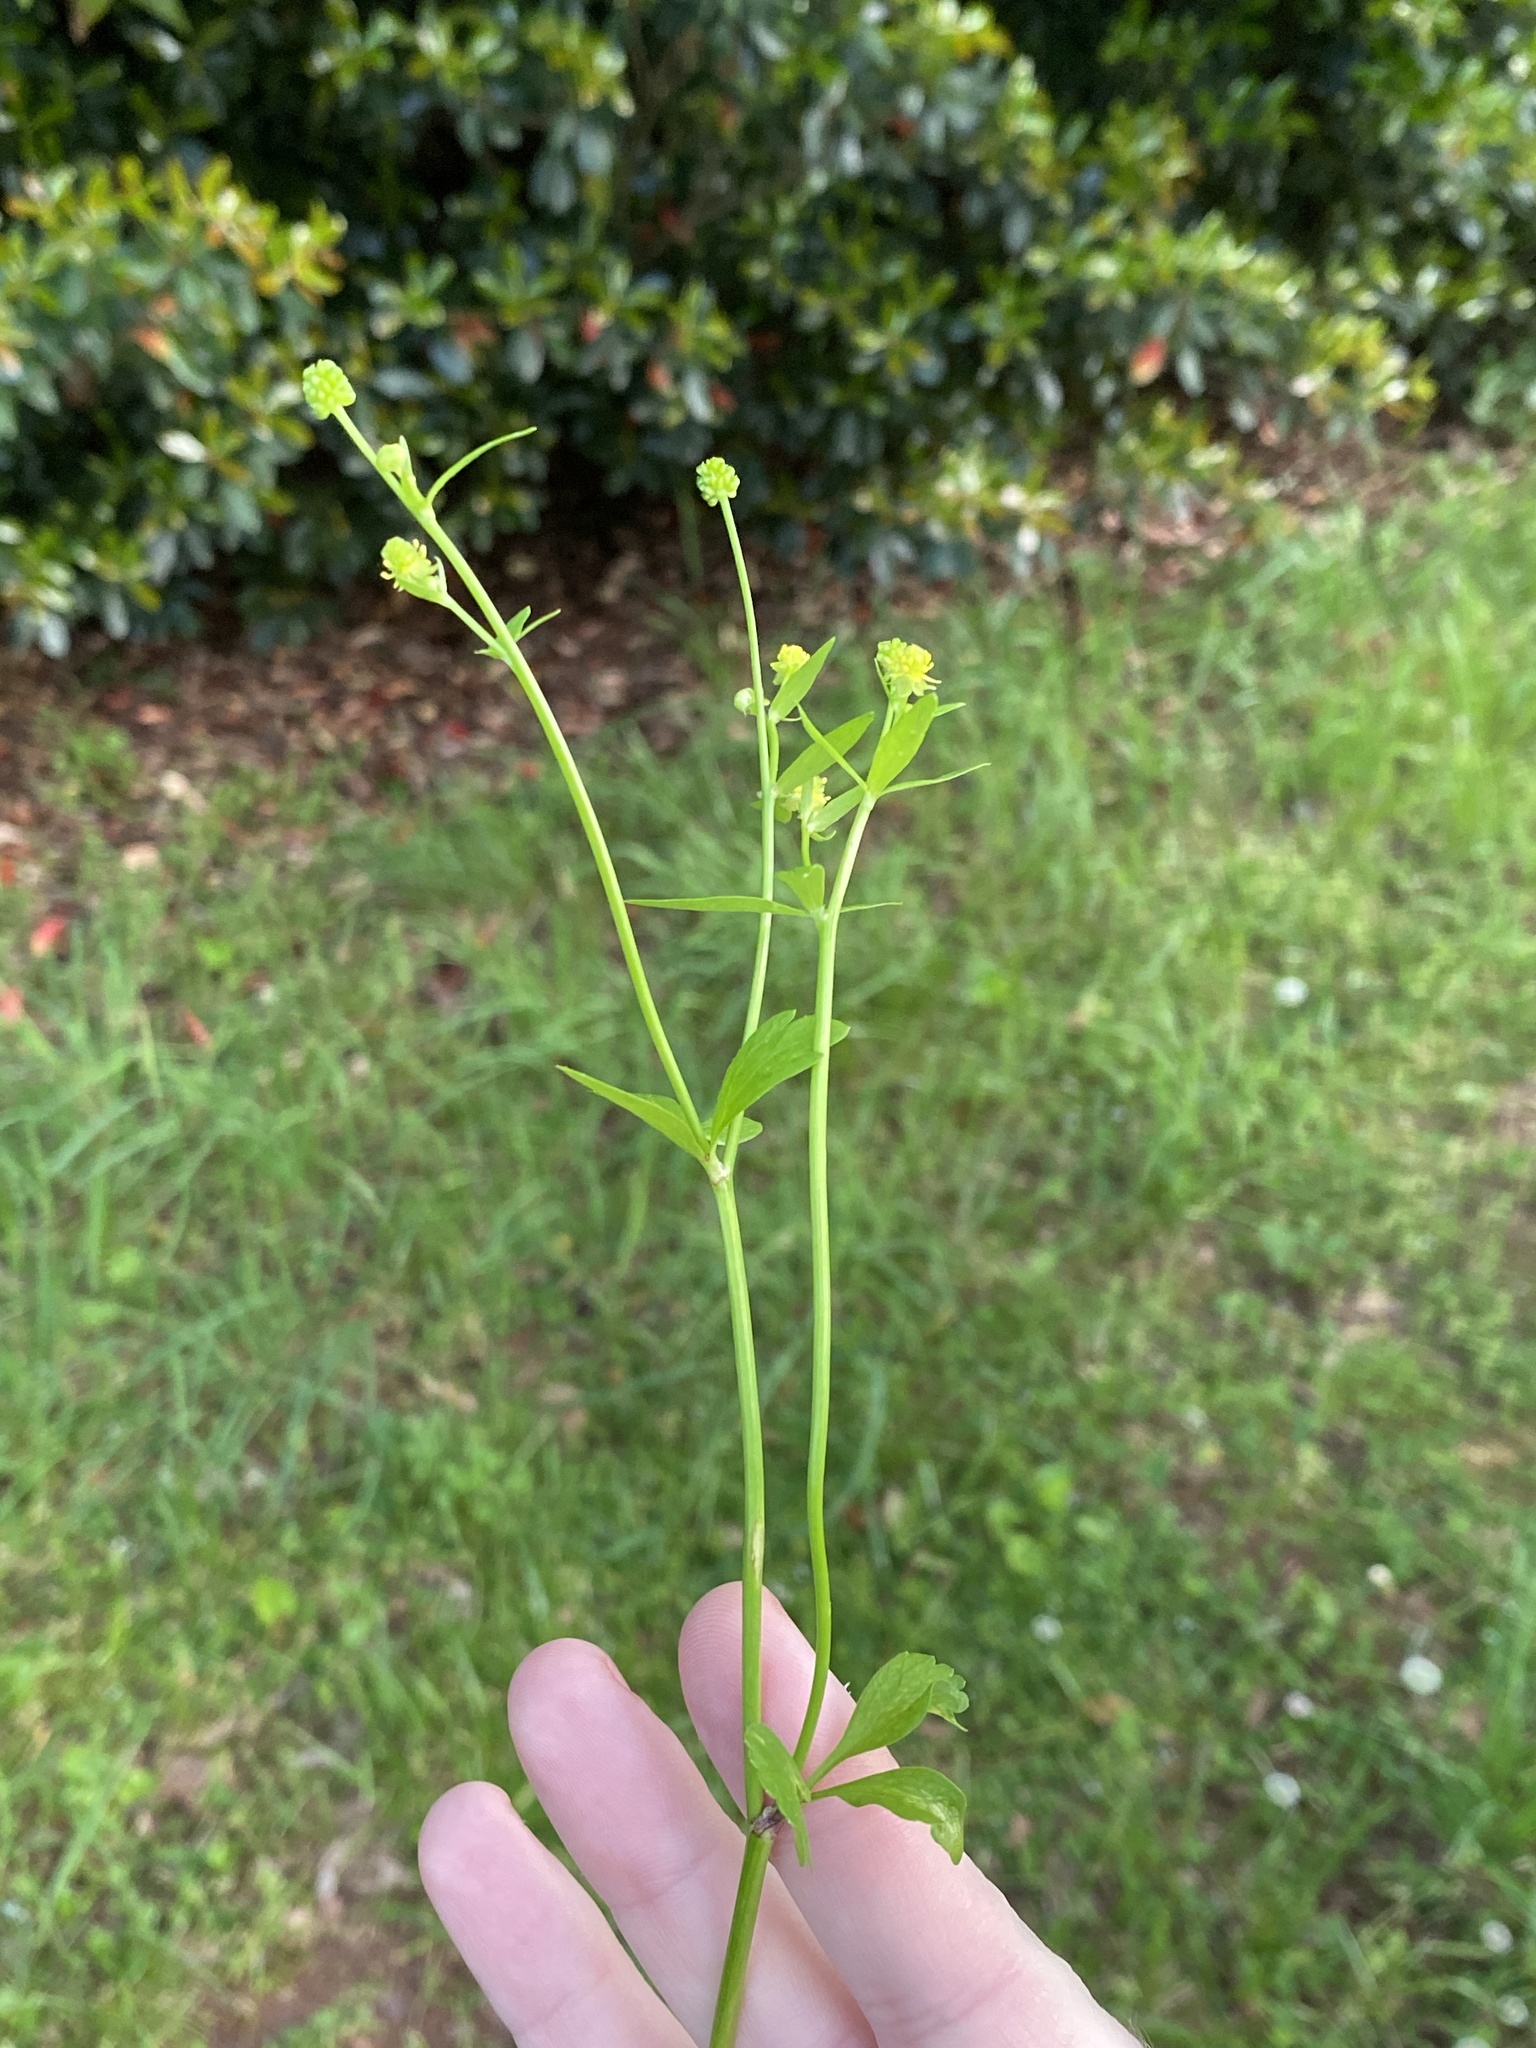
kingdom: Plantae
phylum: Tracheophyta
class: Magnoliopsida
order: Ranunculales
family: Ranunculaceae
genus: Ranunculus
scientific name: Ranunculus abortivus
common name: Early wood buttercup
